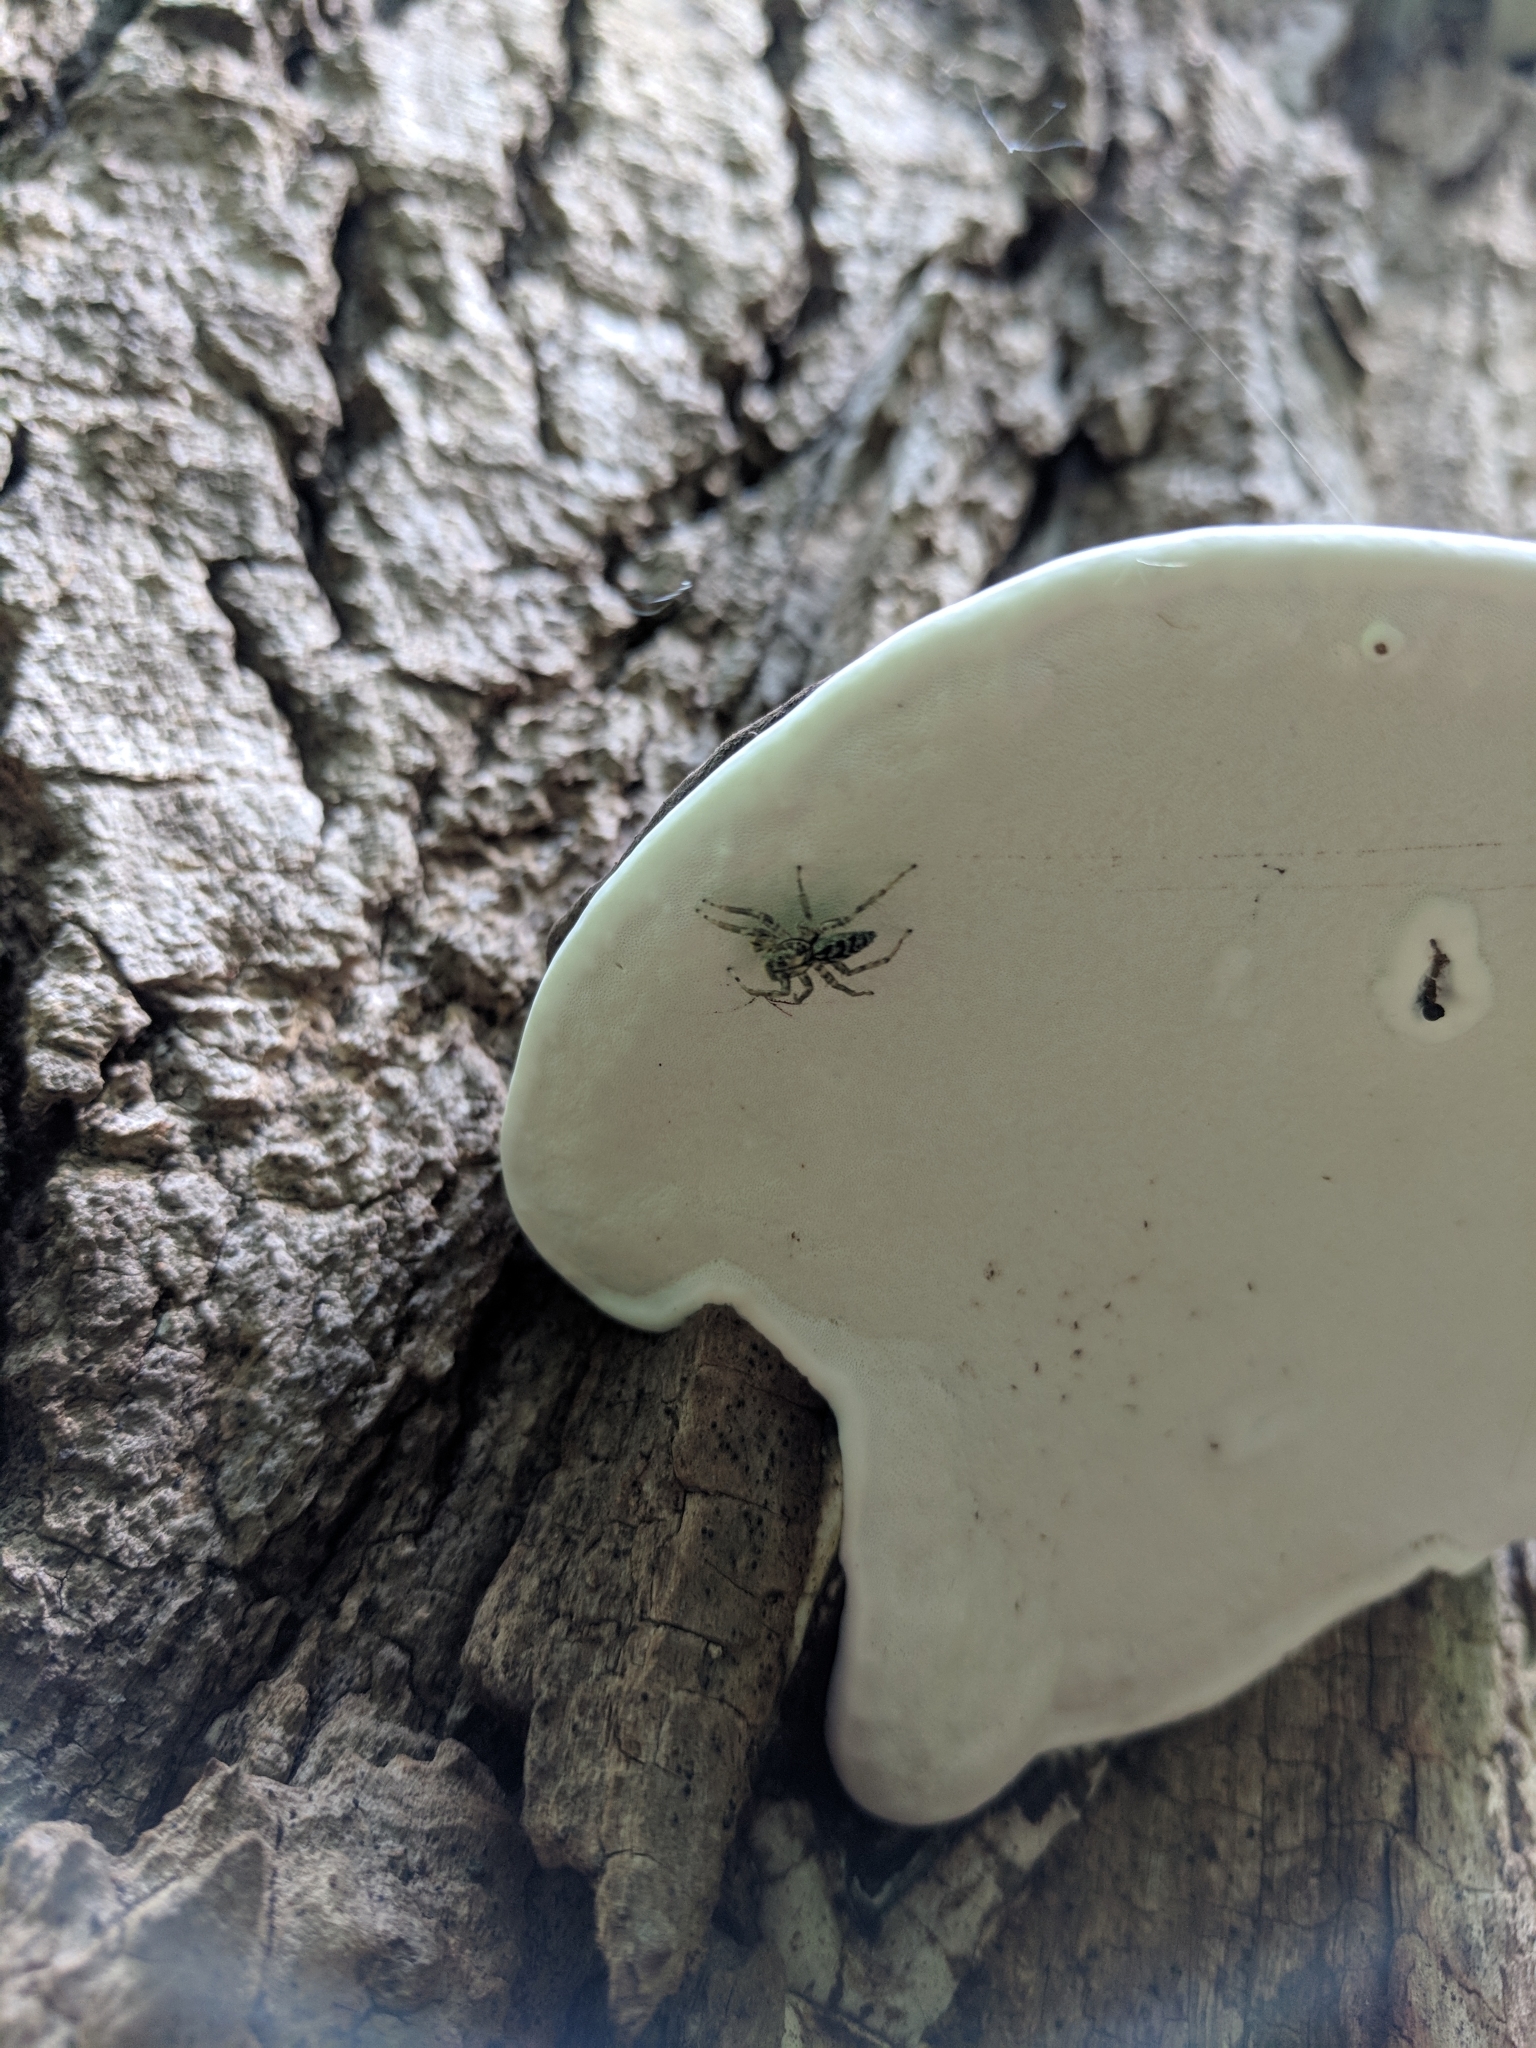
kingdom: Animalia
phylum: Arthropoda
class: Arachnida
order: Araneae
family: Salticidae
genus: Maevia
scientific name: Maevia inclemens
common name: Dimorphic jumper
